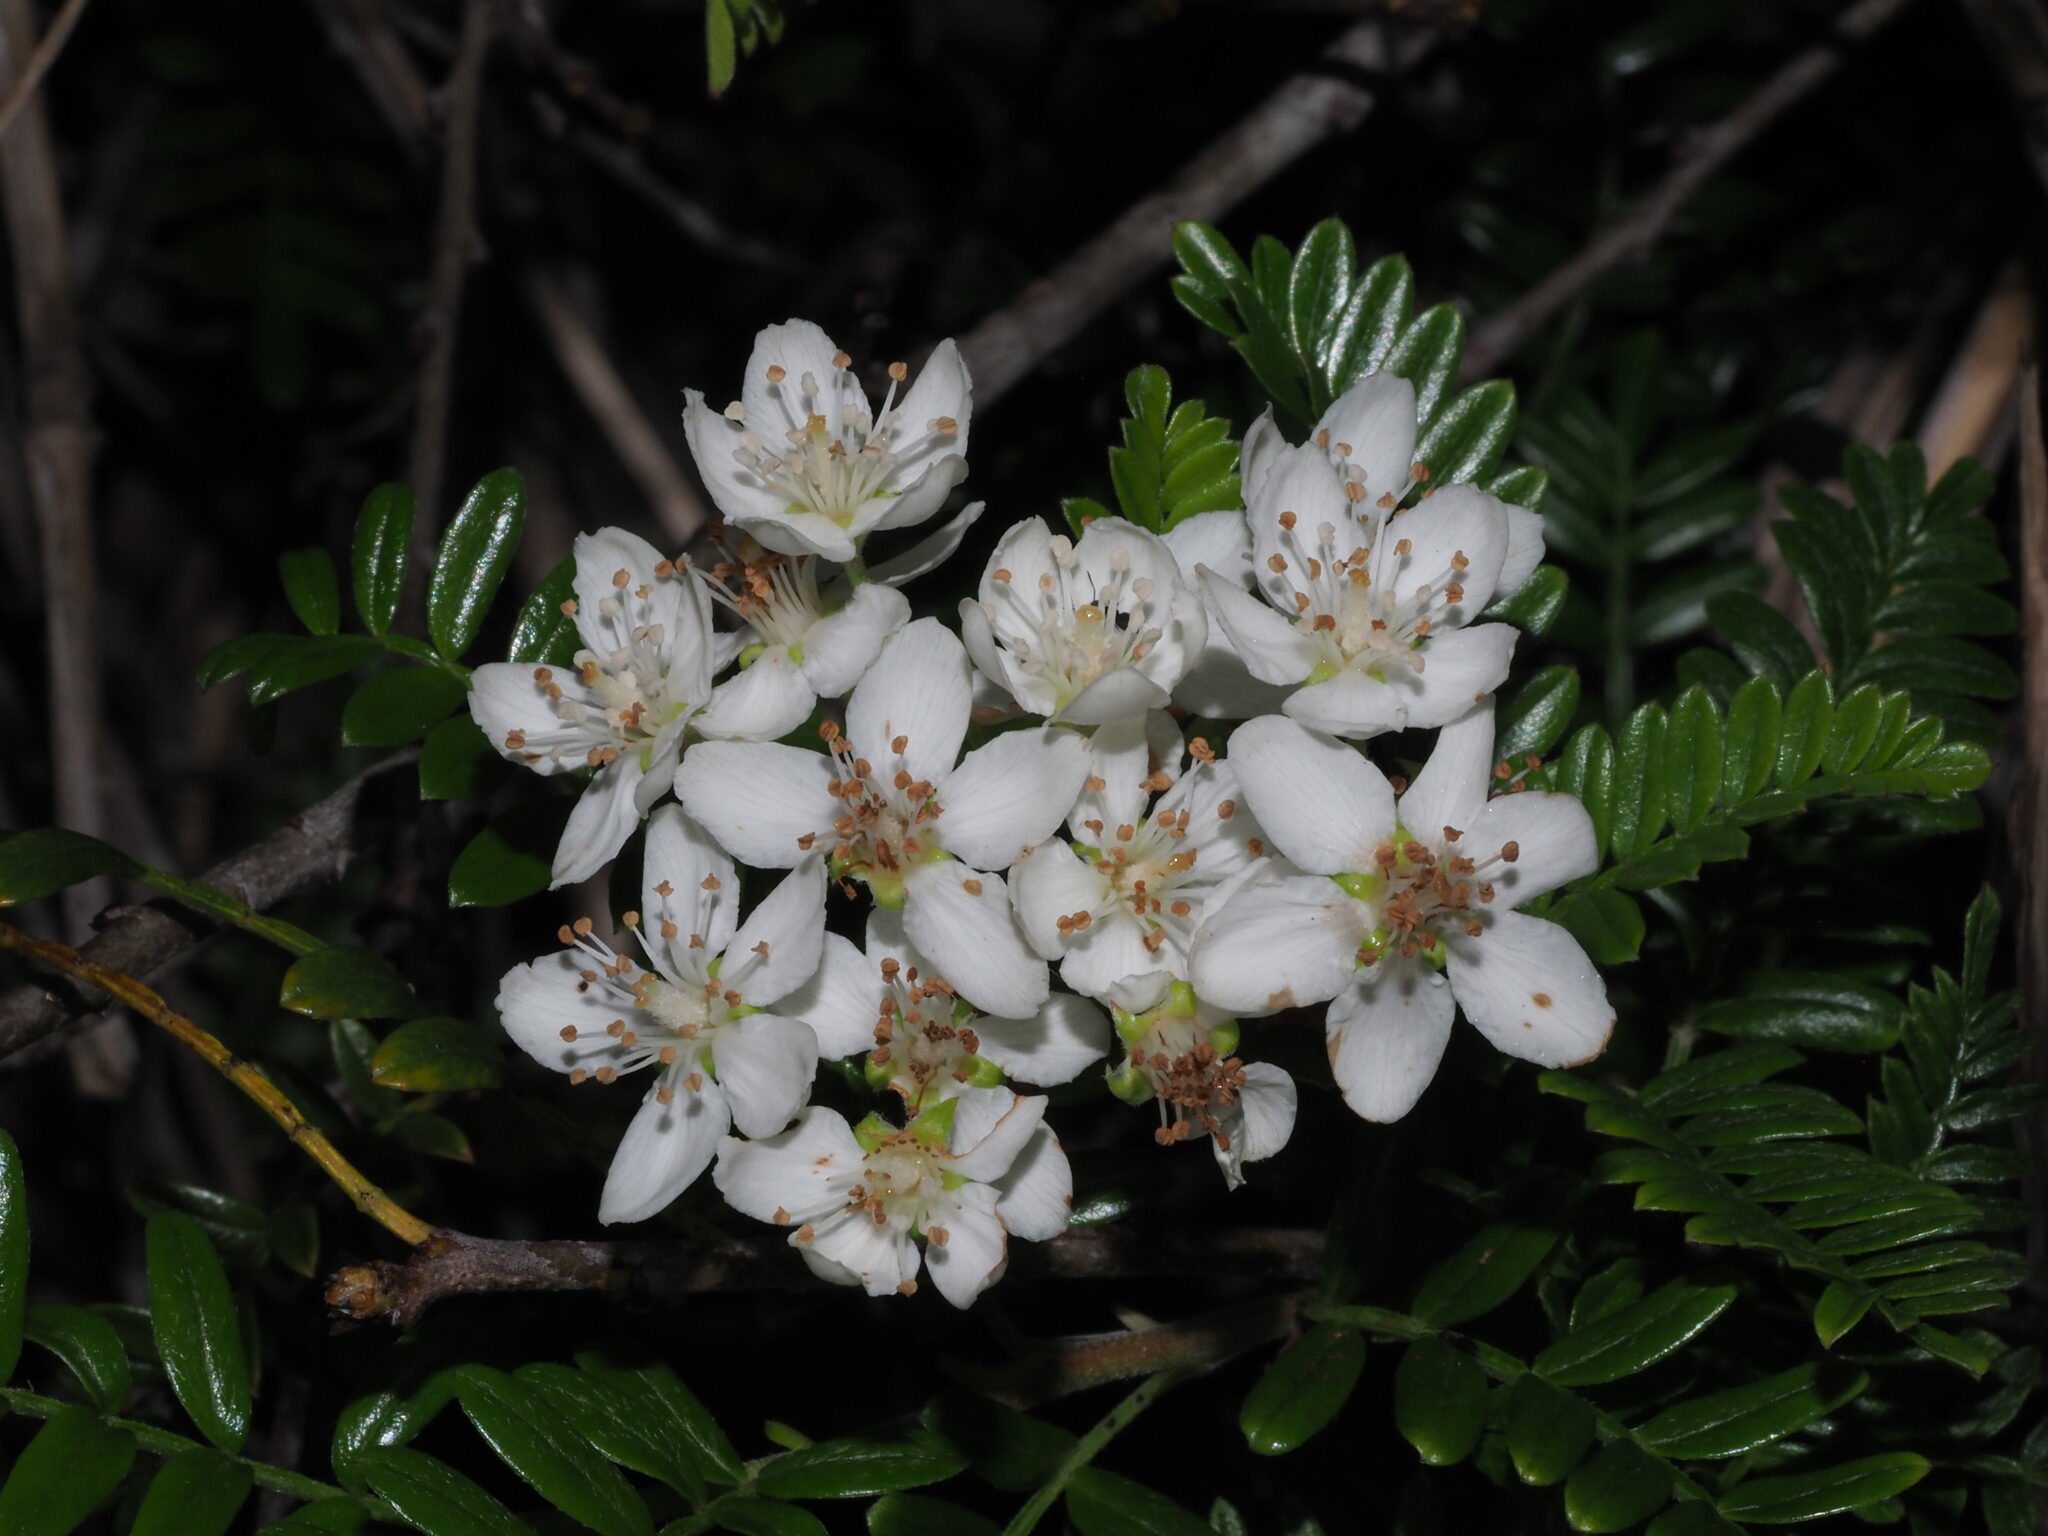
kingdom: Plantae
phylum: Tracheophyta
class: Magnoliopsida
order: Rosales
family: Rosaceae
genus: Osteomeles
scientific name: Osteomeles anthyllidifolia
